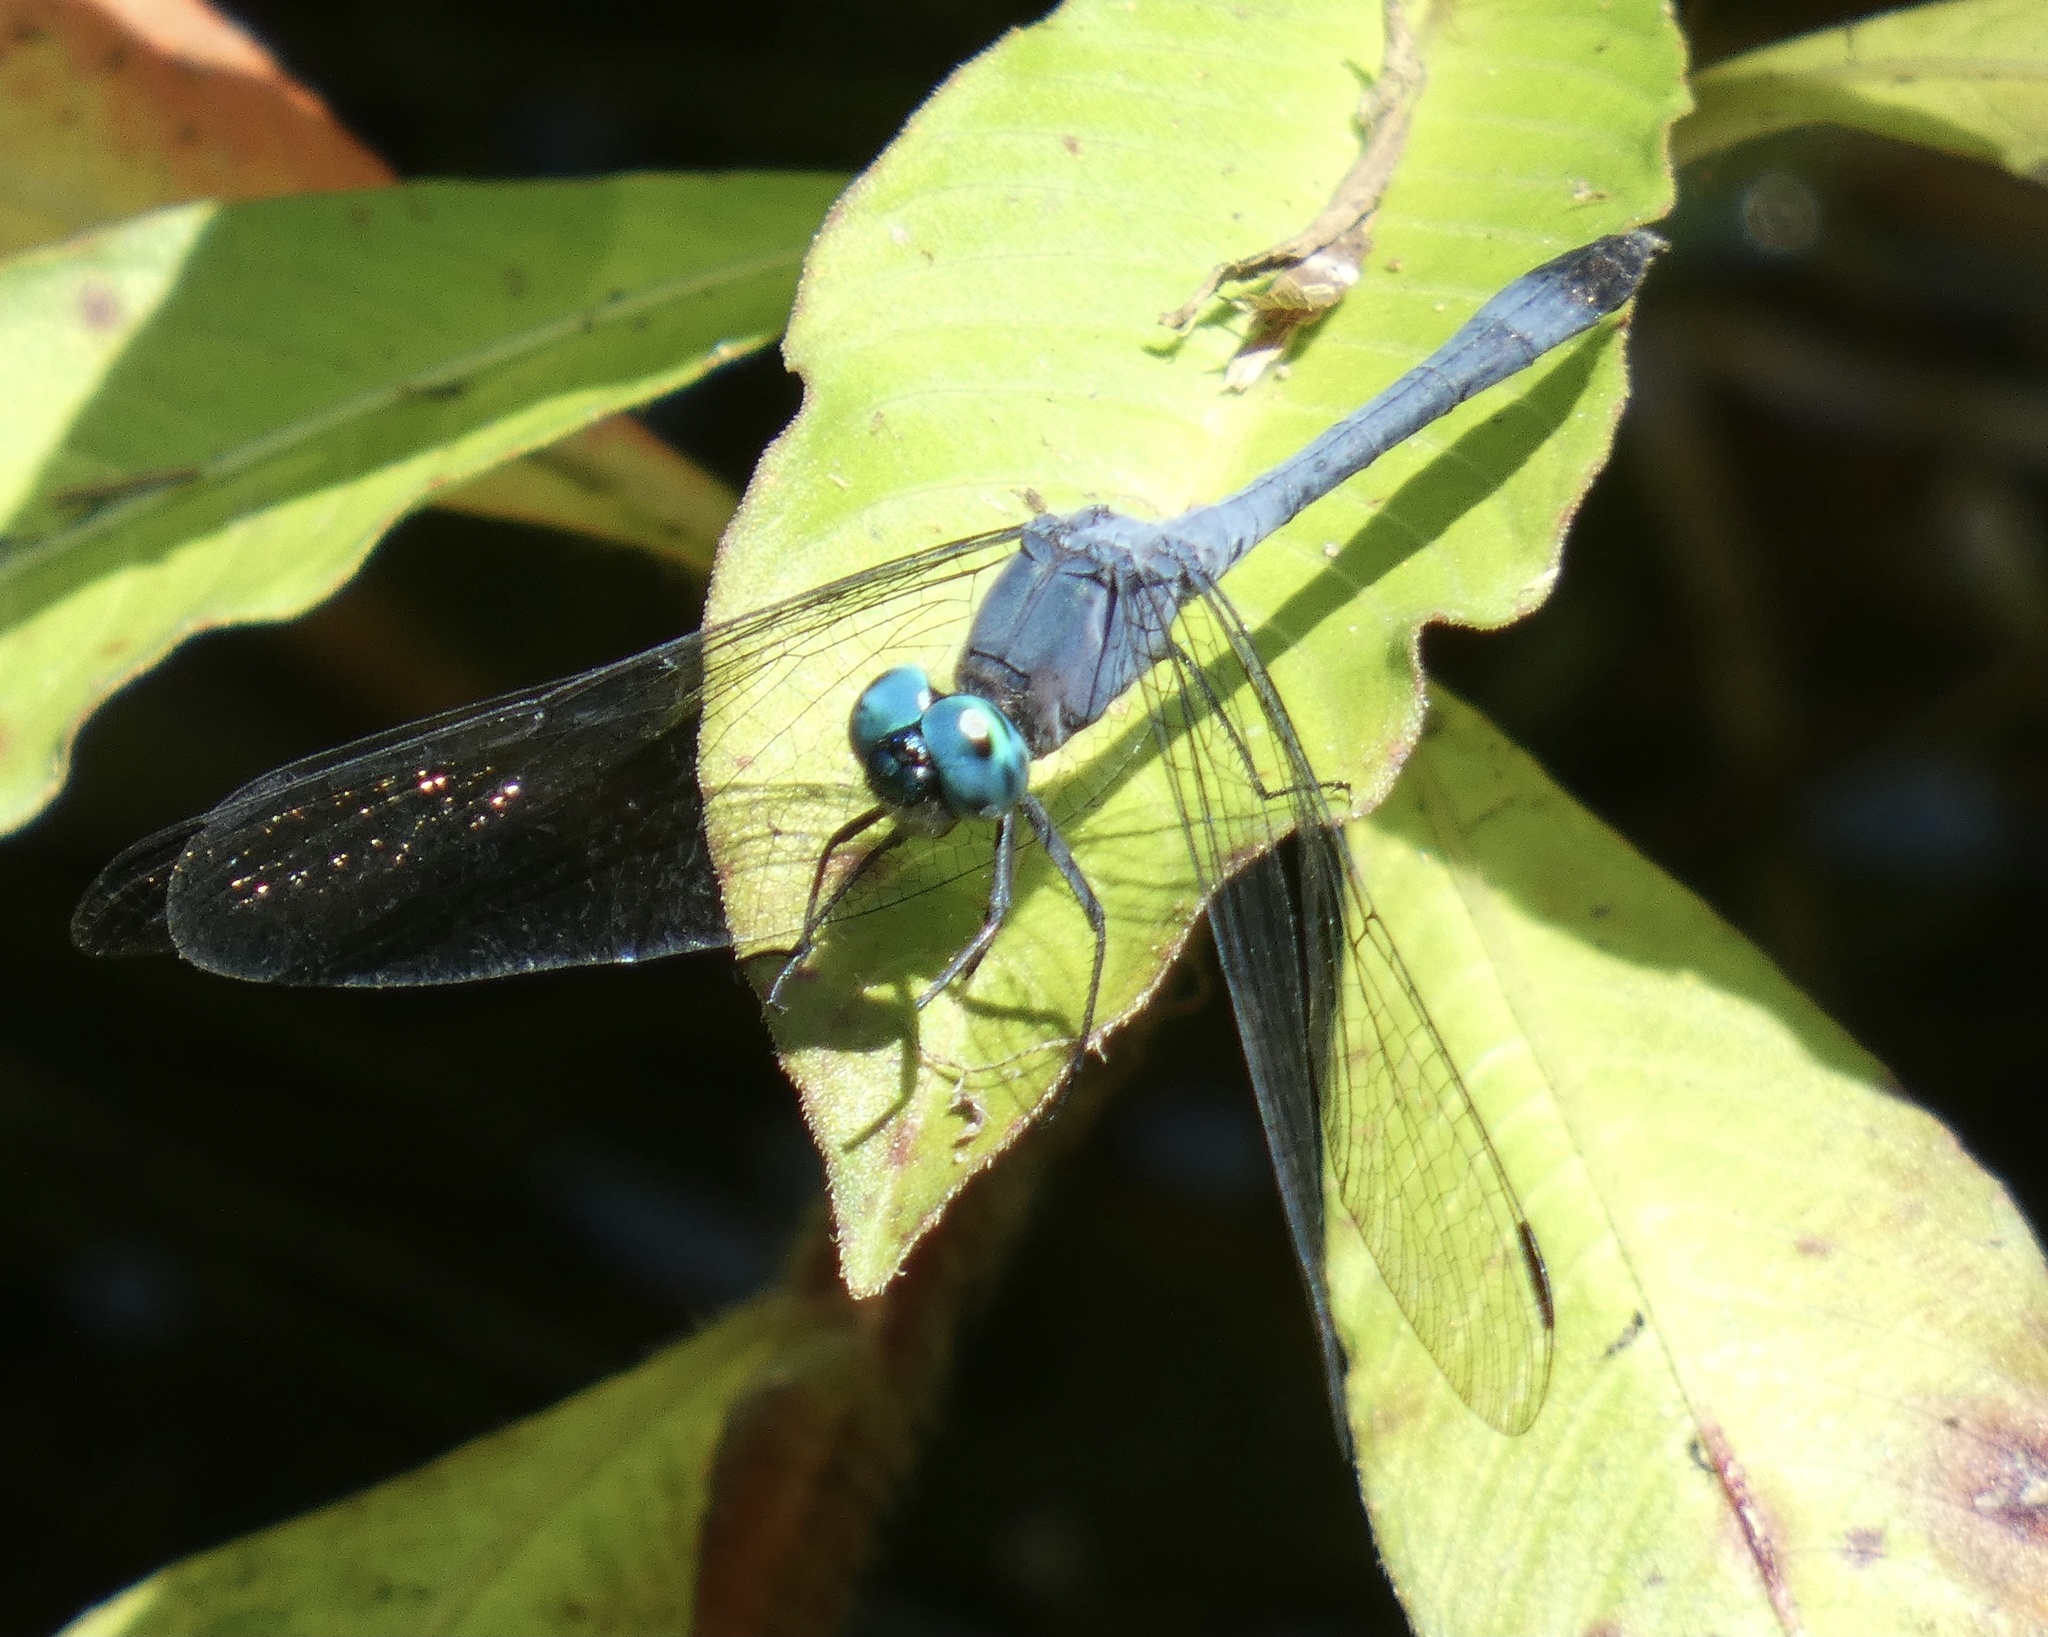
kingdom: Animalia
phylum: Arthropoda
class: Insecta
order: Odonata
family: Libellulidae
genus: Micrathyria
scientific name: Micrathyria athenais
